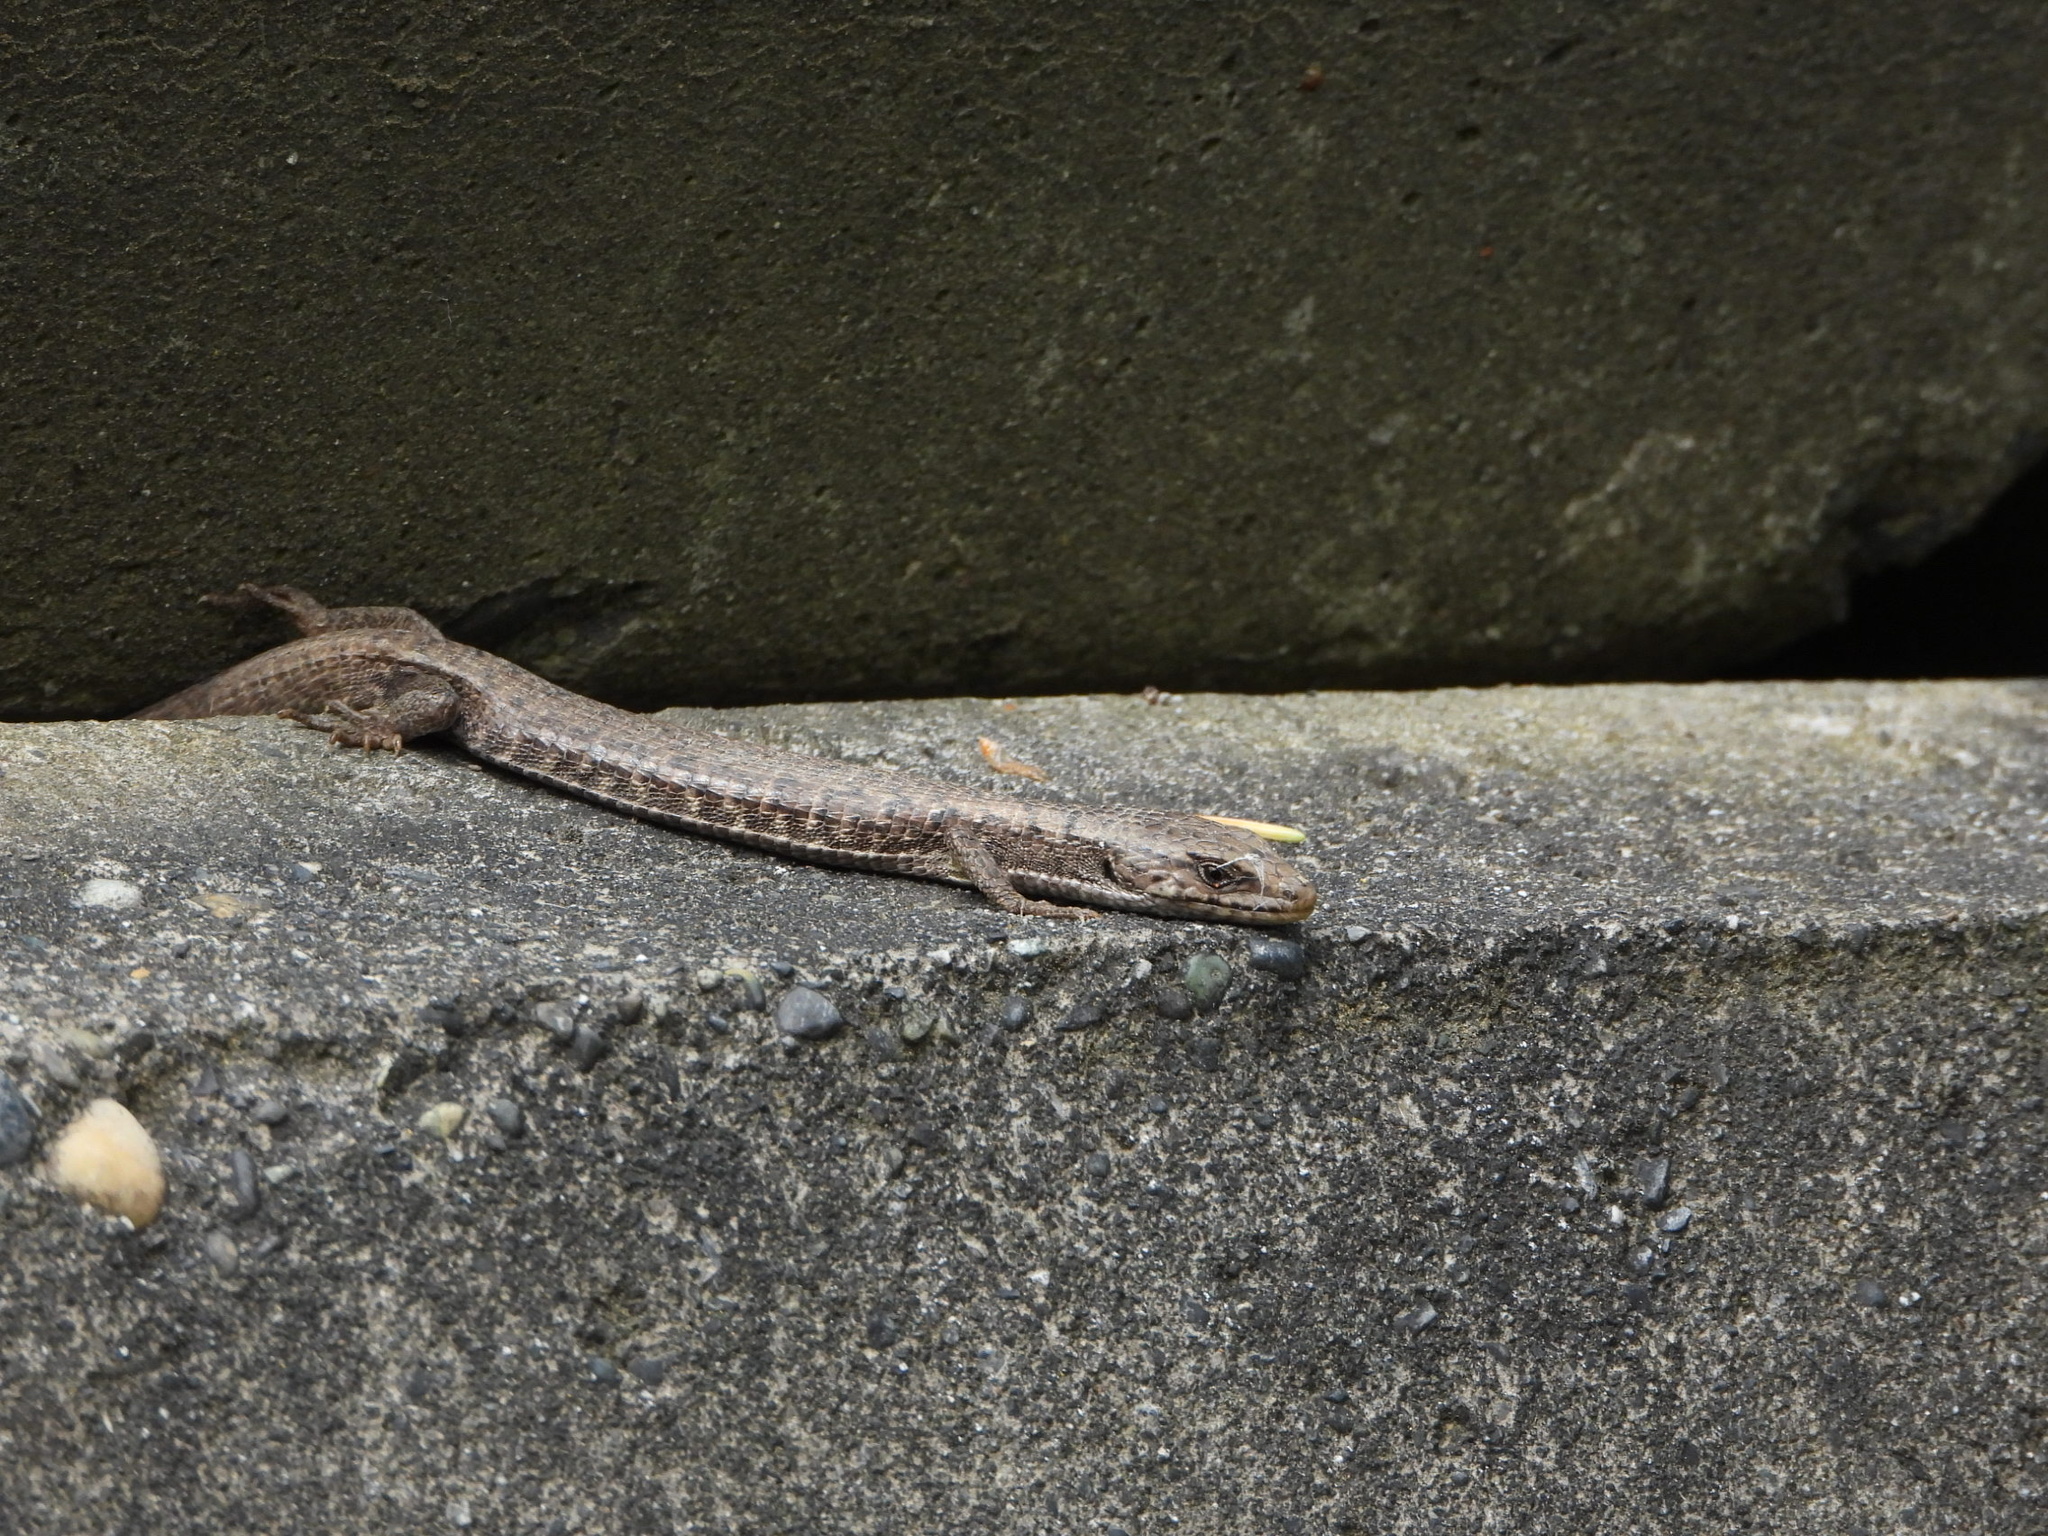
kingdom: Animalia
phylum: Chordata
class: Squamata
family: Anguidae
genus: Elgaria
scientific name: Elgaria coerulea
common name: Northern alligator lizard
